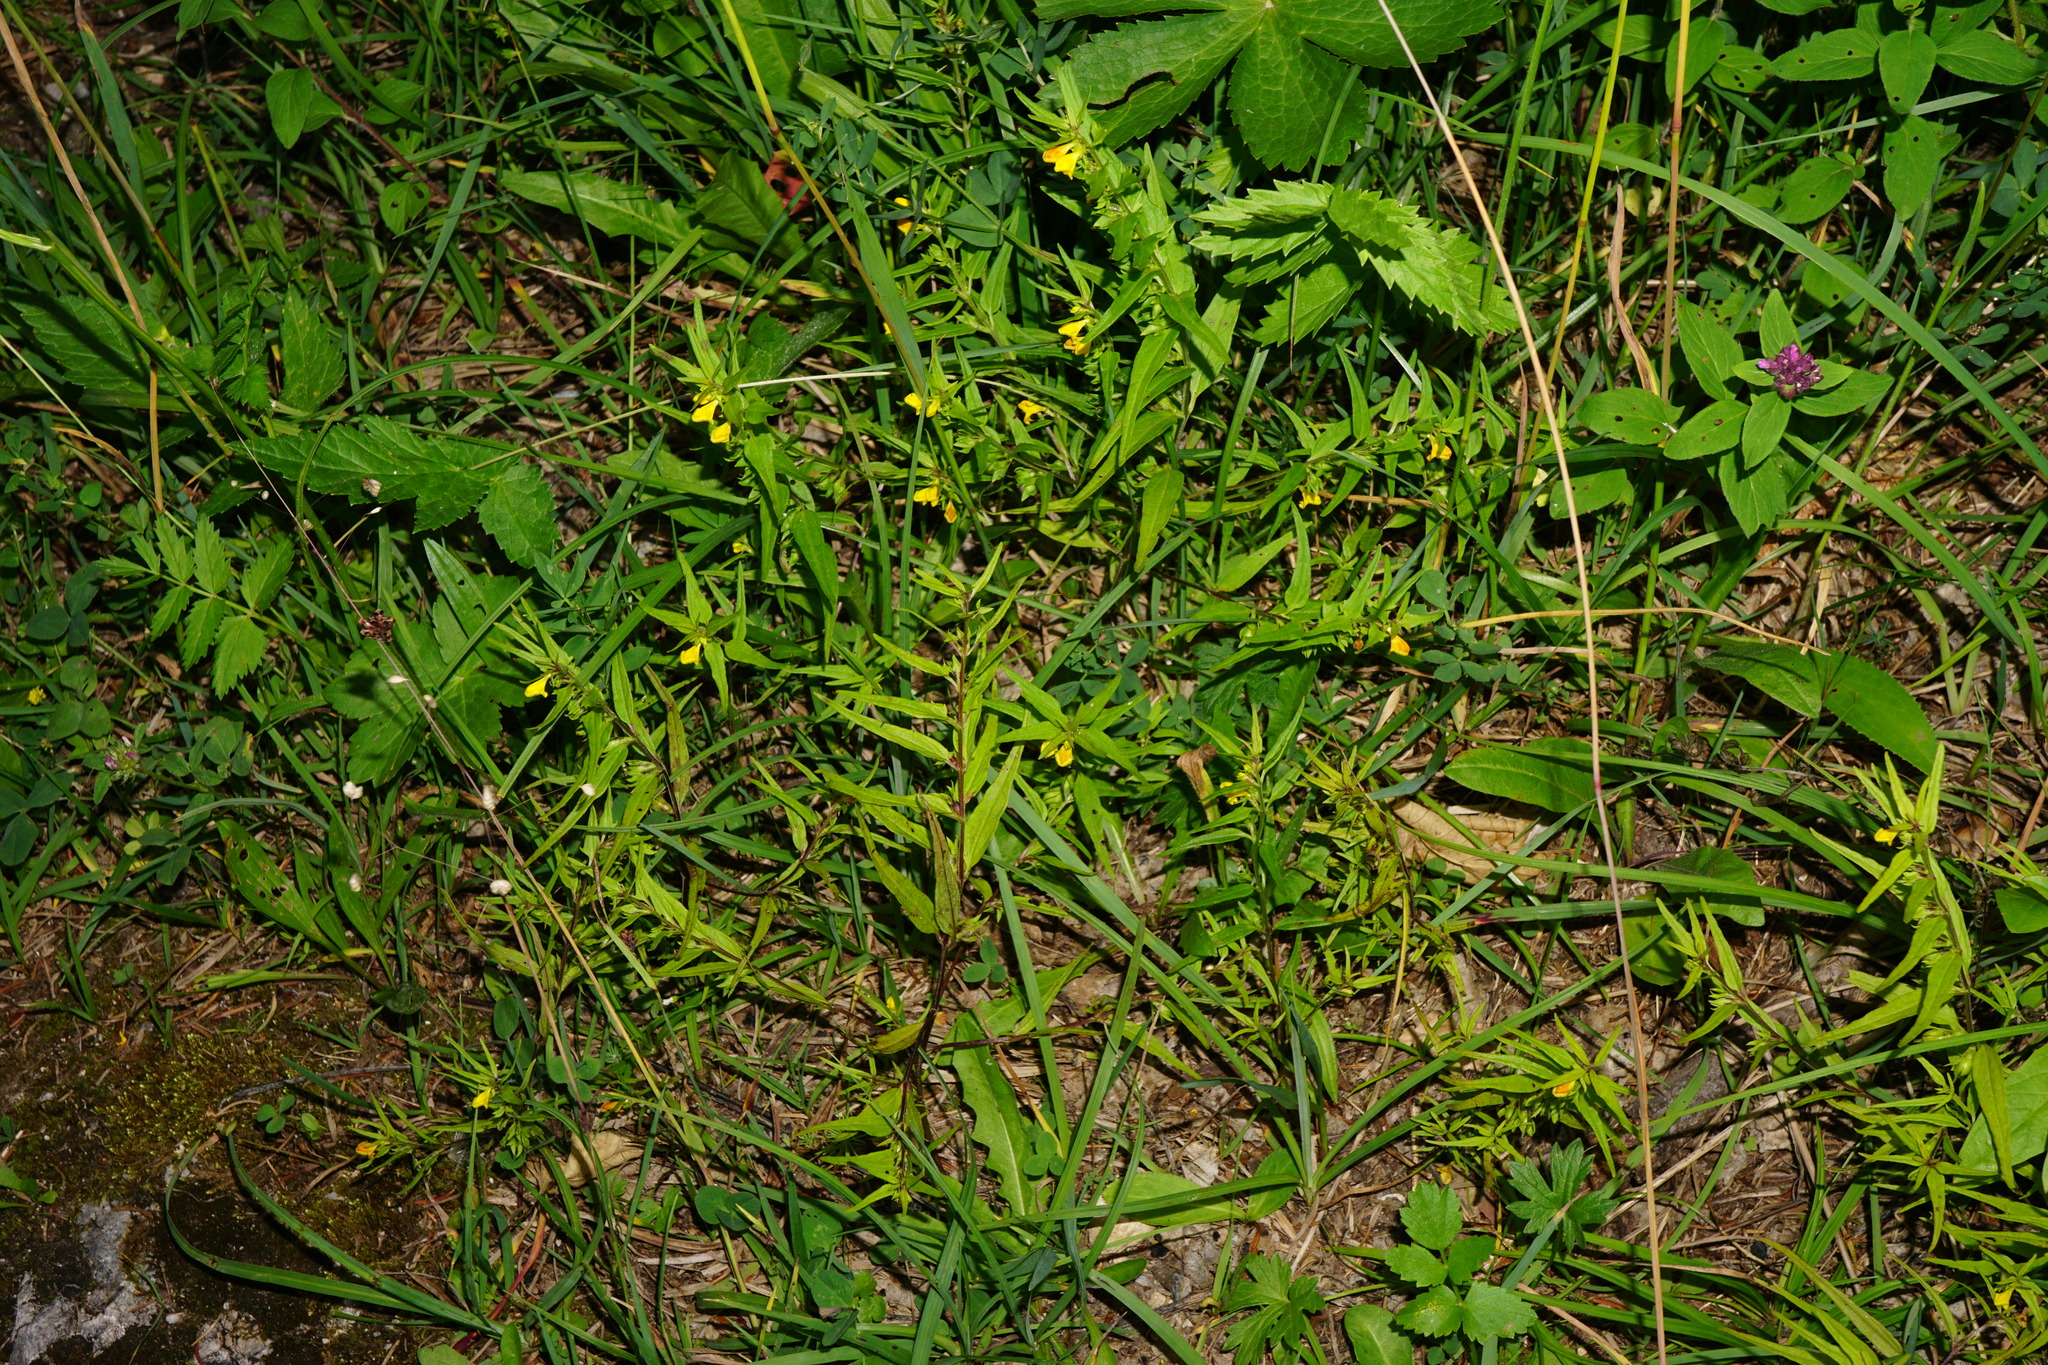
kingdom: Plantae
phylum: Tracheophyta
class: Magnoliopsida
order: Lamiales
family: Orobanchaceae
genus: Melampyrum
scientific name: Melampyrum sylvaticum
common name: Small cow-wheat
